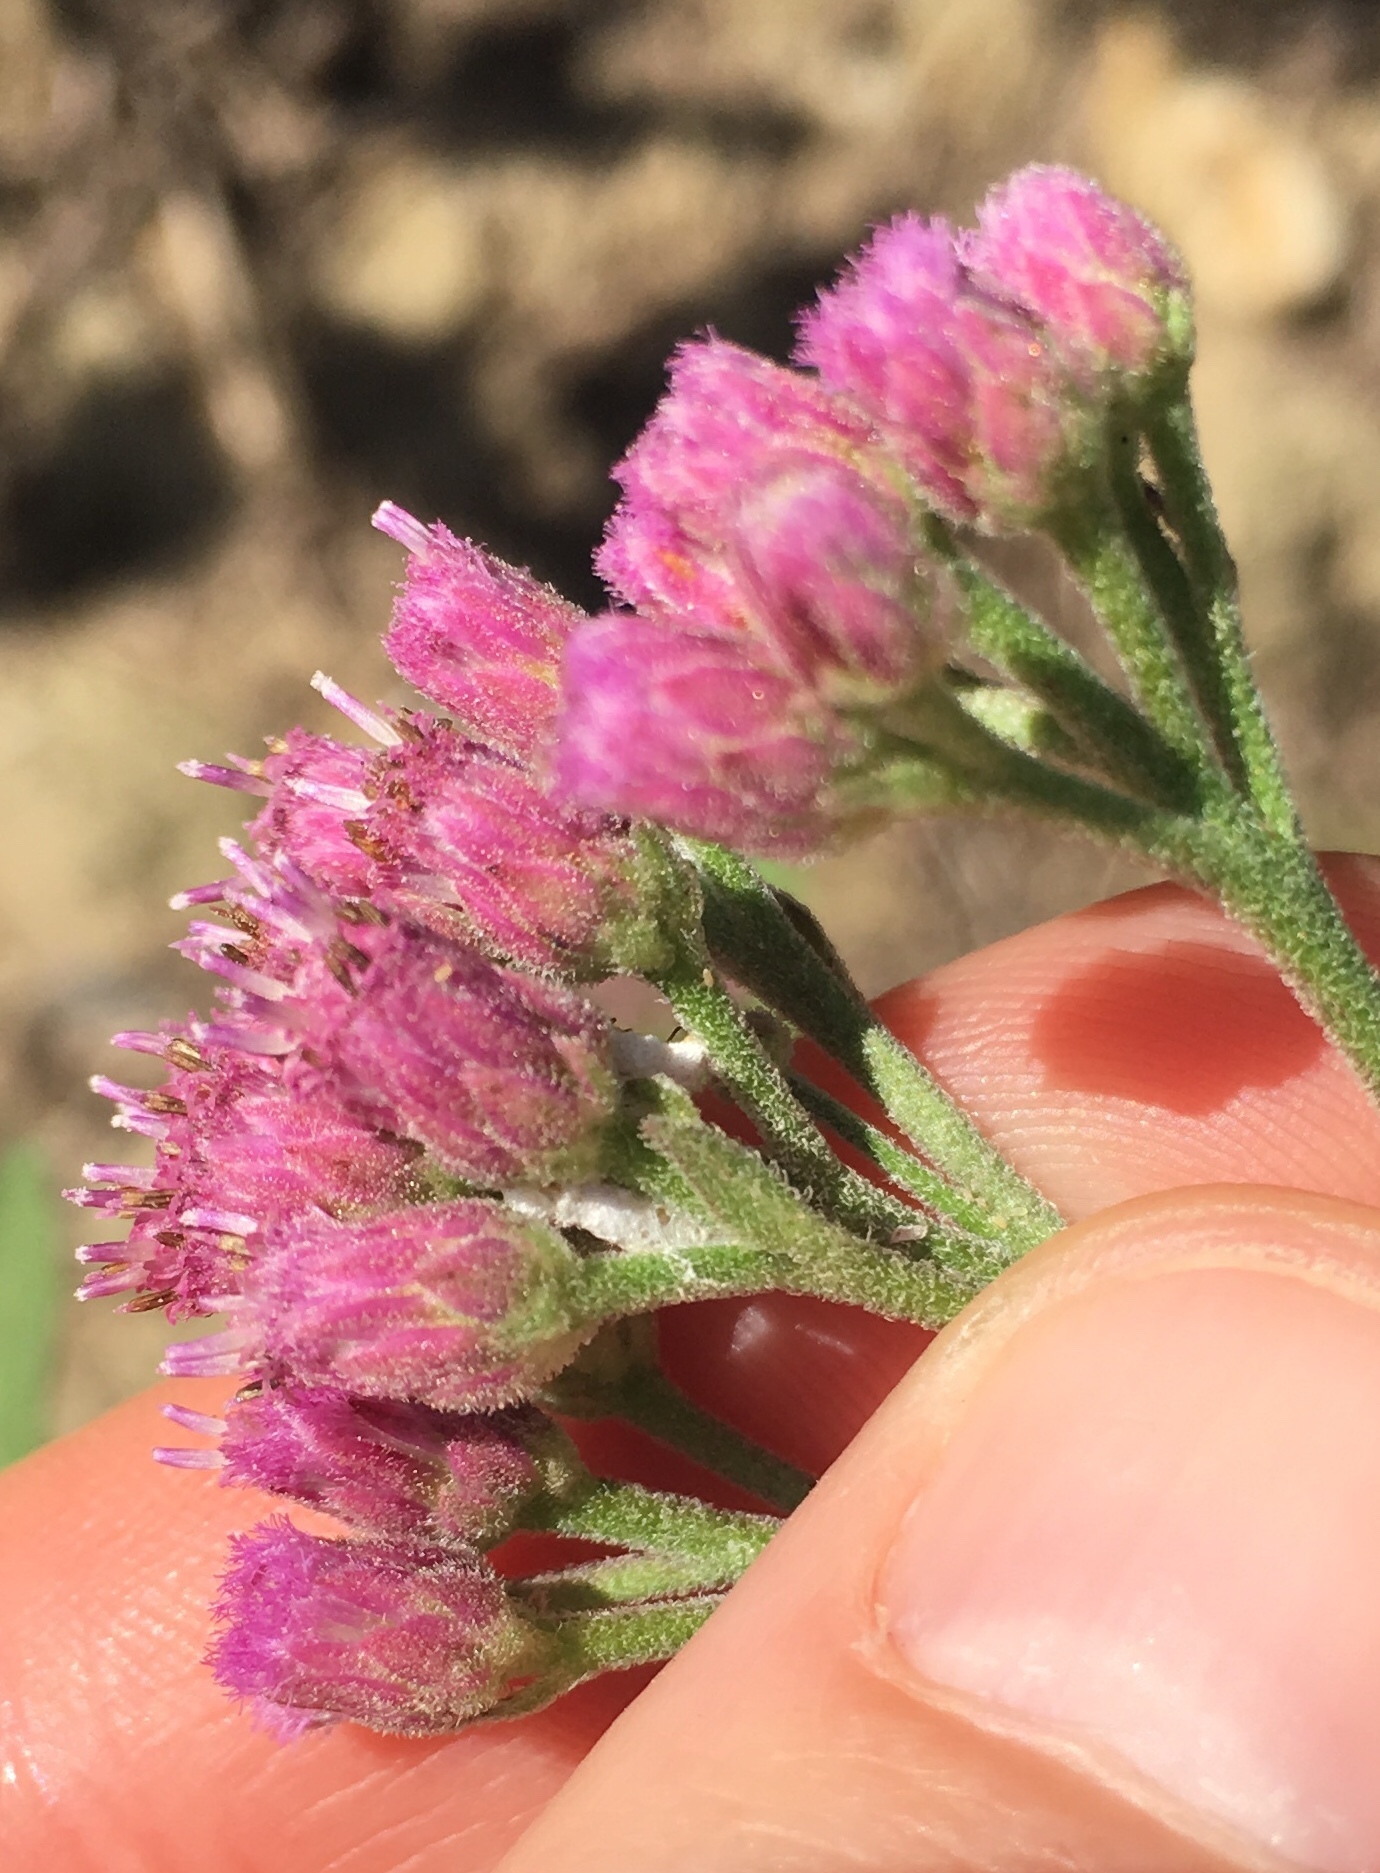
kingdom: Plantae
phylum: Tracheophyta
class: Magnoliopsida
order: Asterales
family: Asteraceae
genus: Pluchea
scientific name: Pluchea odorata
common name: Saltmarsh fleabane
